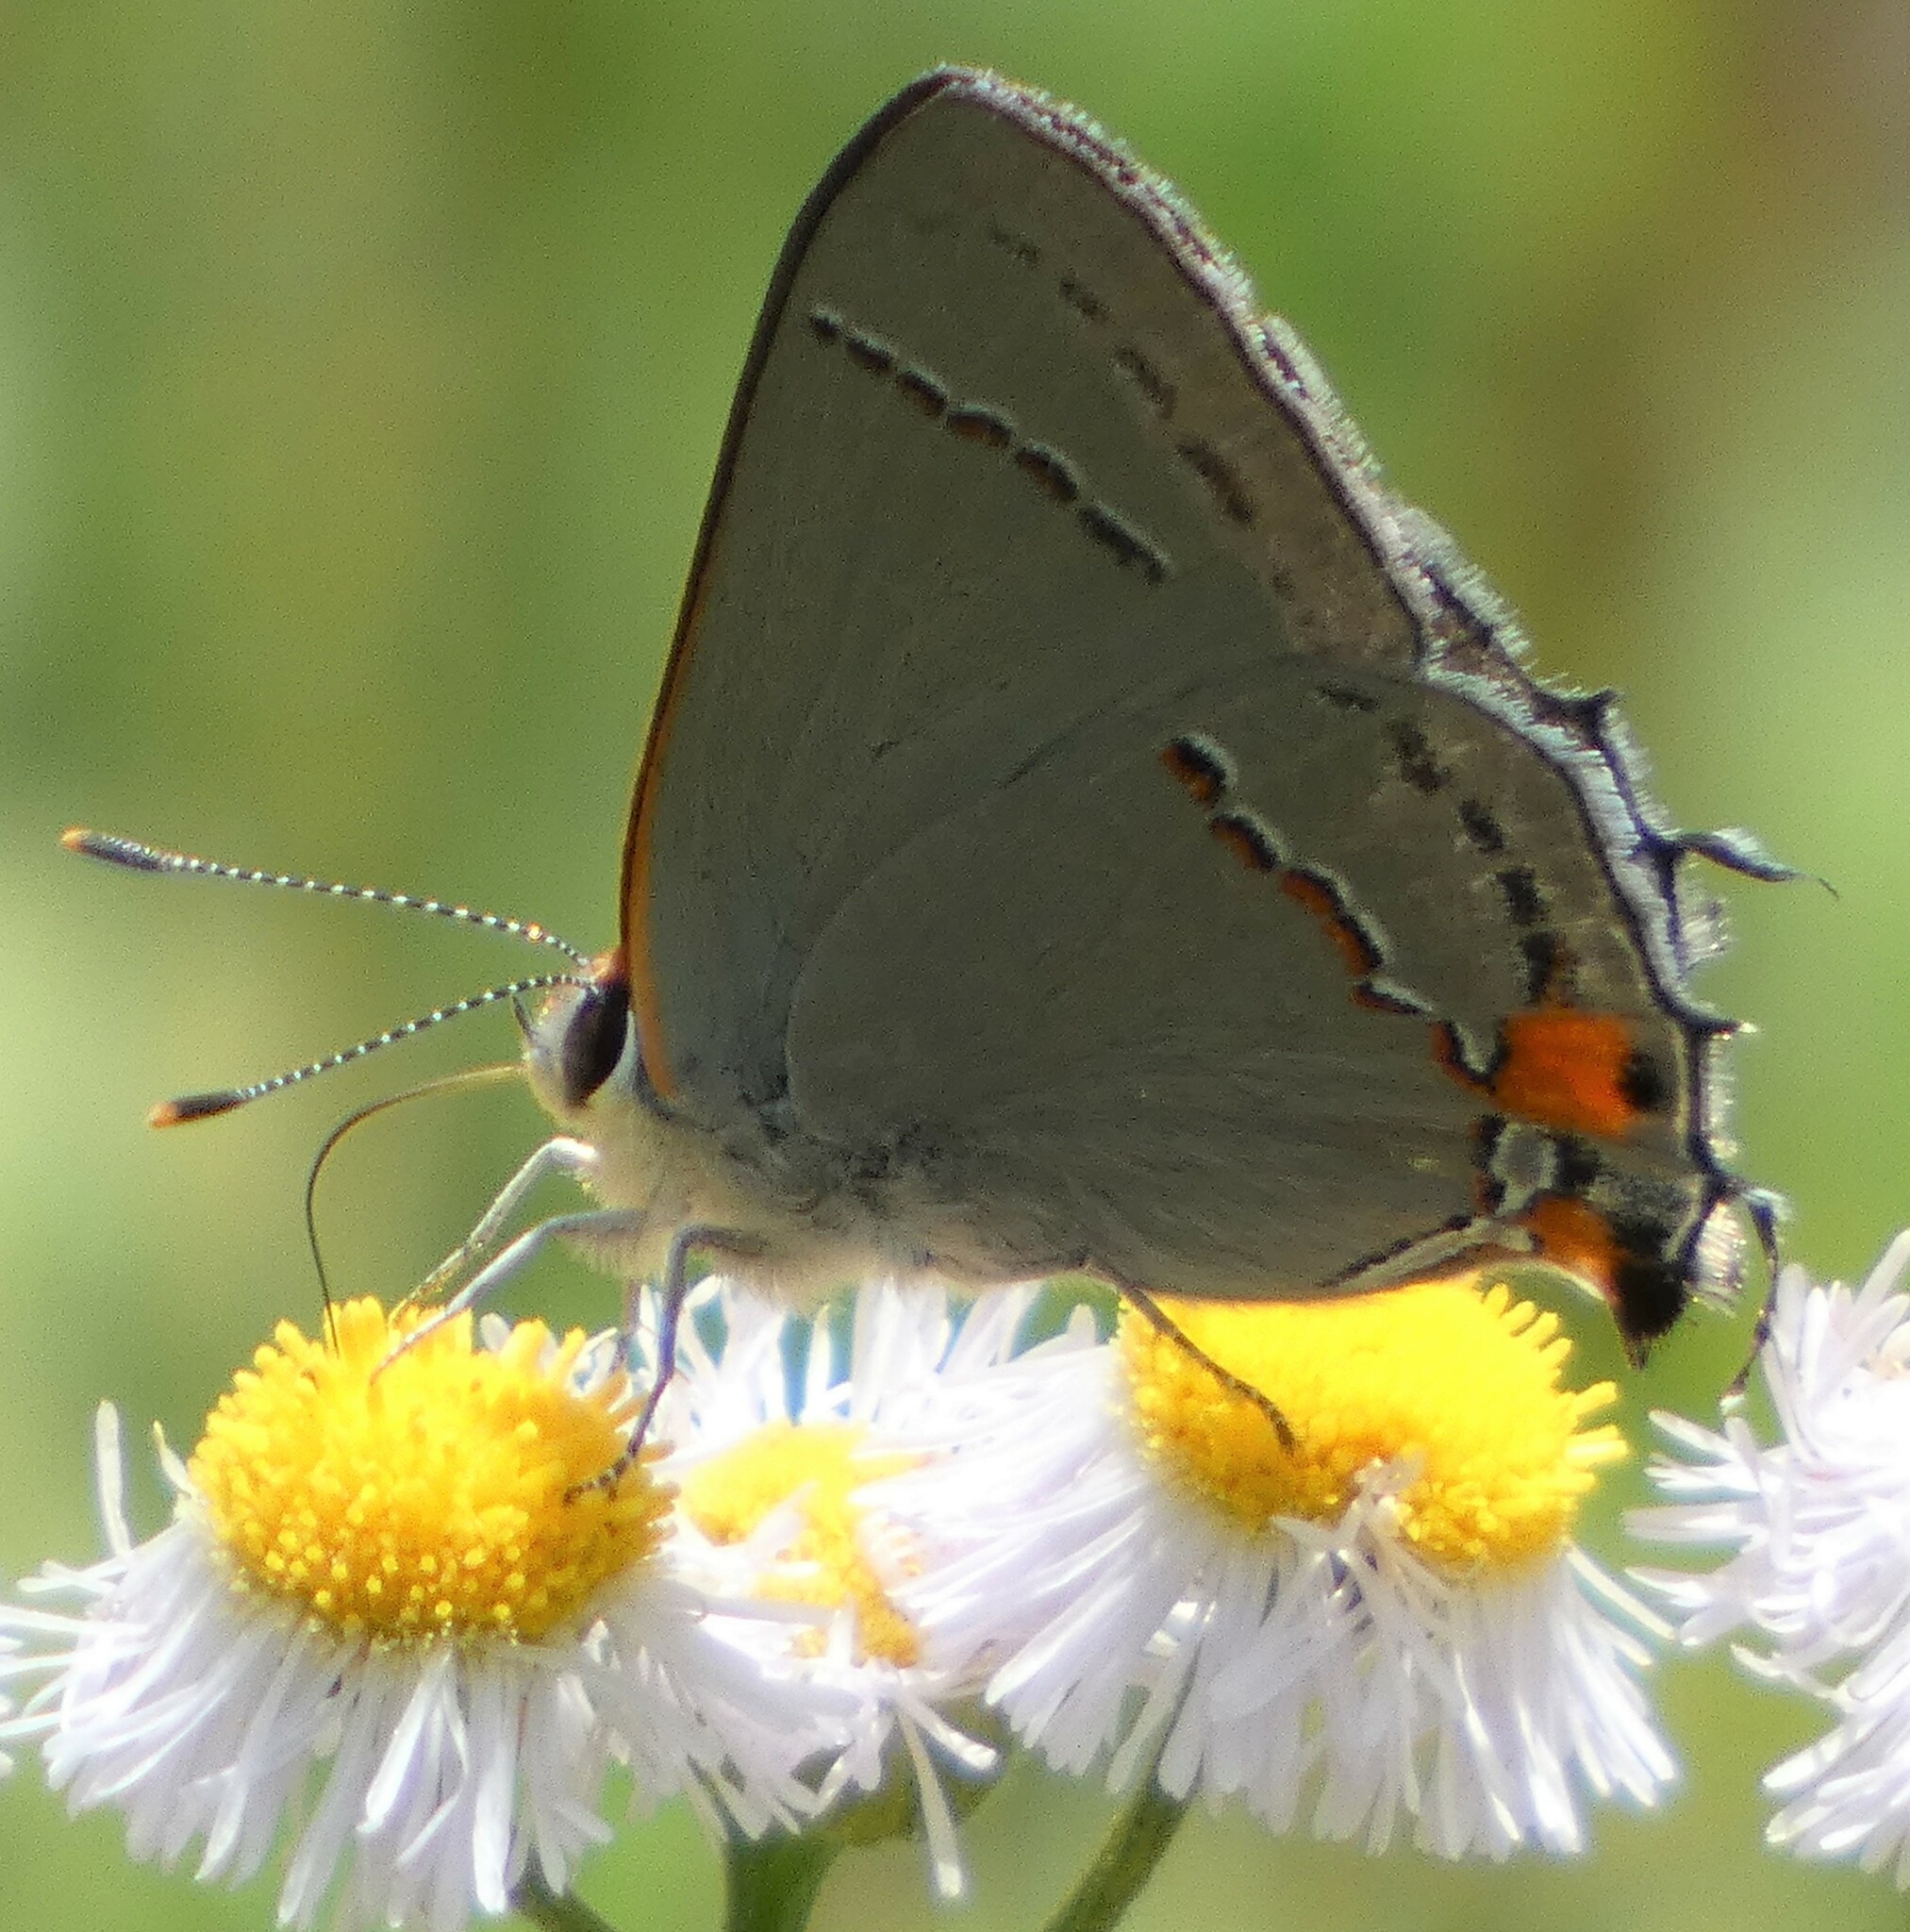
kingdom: Animalia
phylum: Arthropoda
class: Insecta
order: Lepidoptera
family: Lycaenidae
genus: Strymon
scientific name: Strymon melinus
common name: Gray hairstreak
